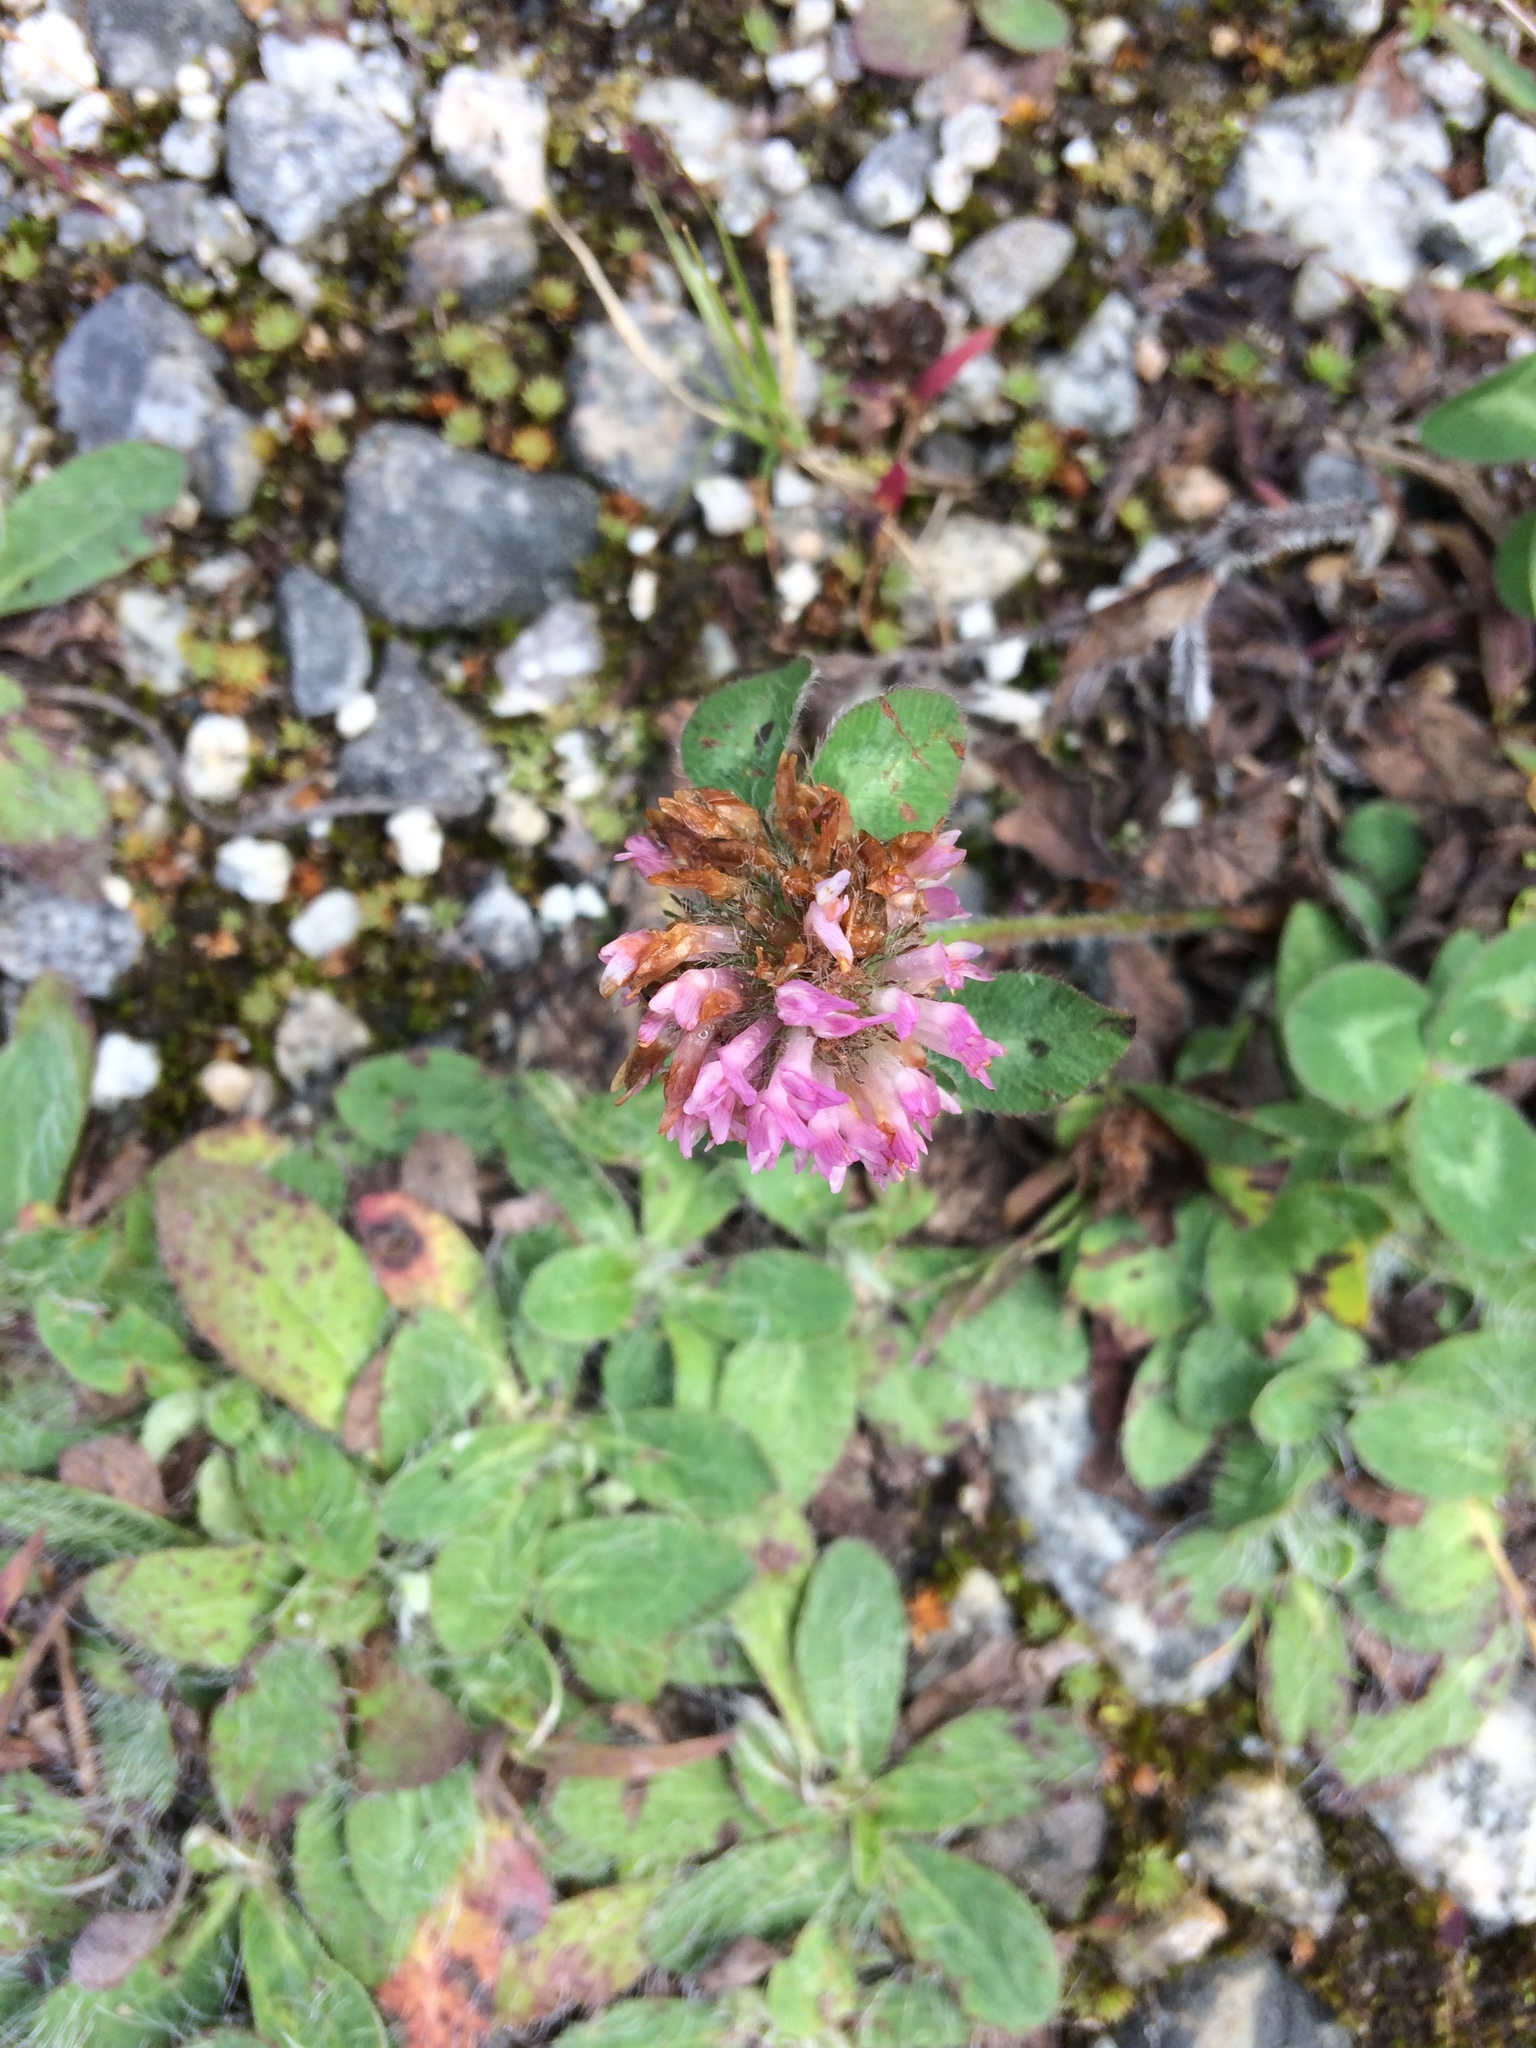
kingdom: Plantae
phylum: Tracheophyta
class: Magnoliopsida
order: Fabales
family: Fabaceae
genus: Trifolium
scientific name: Trifolium pratense
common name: Red clover
